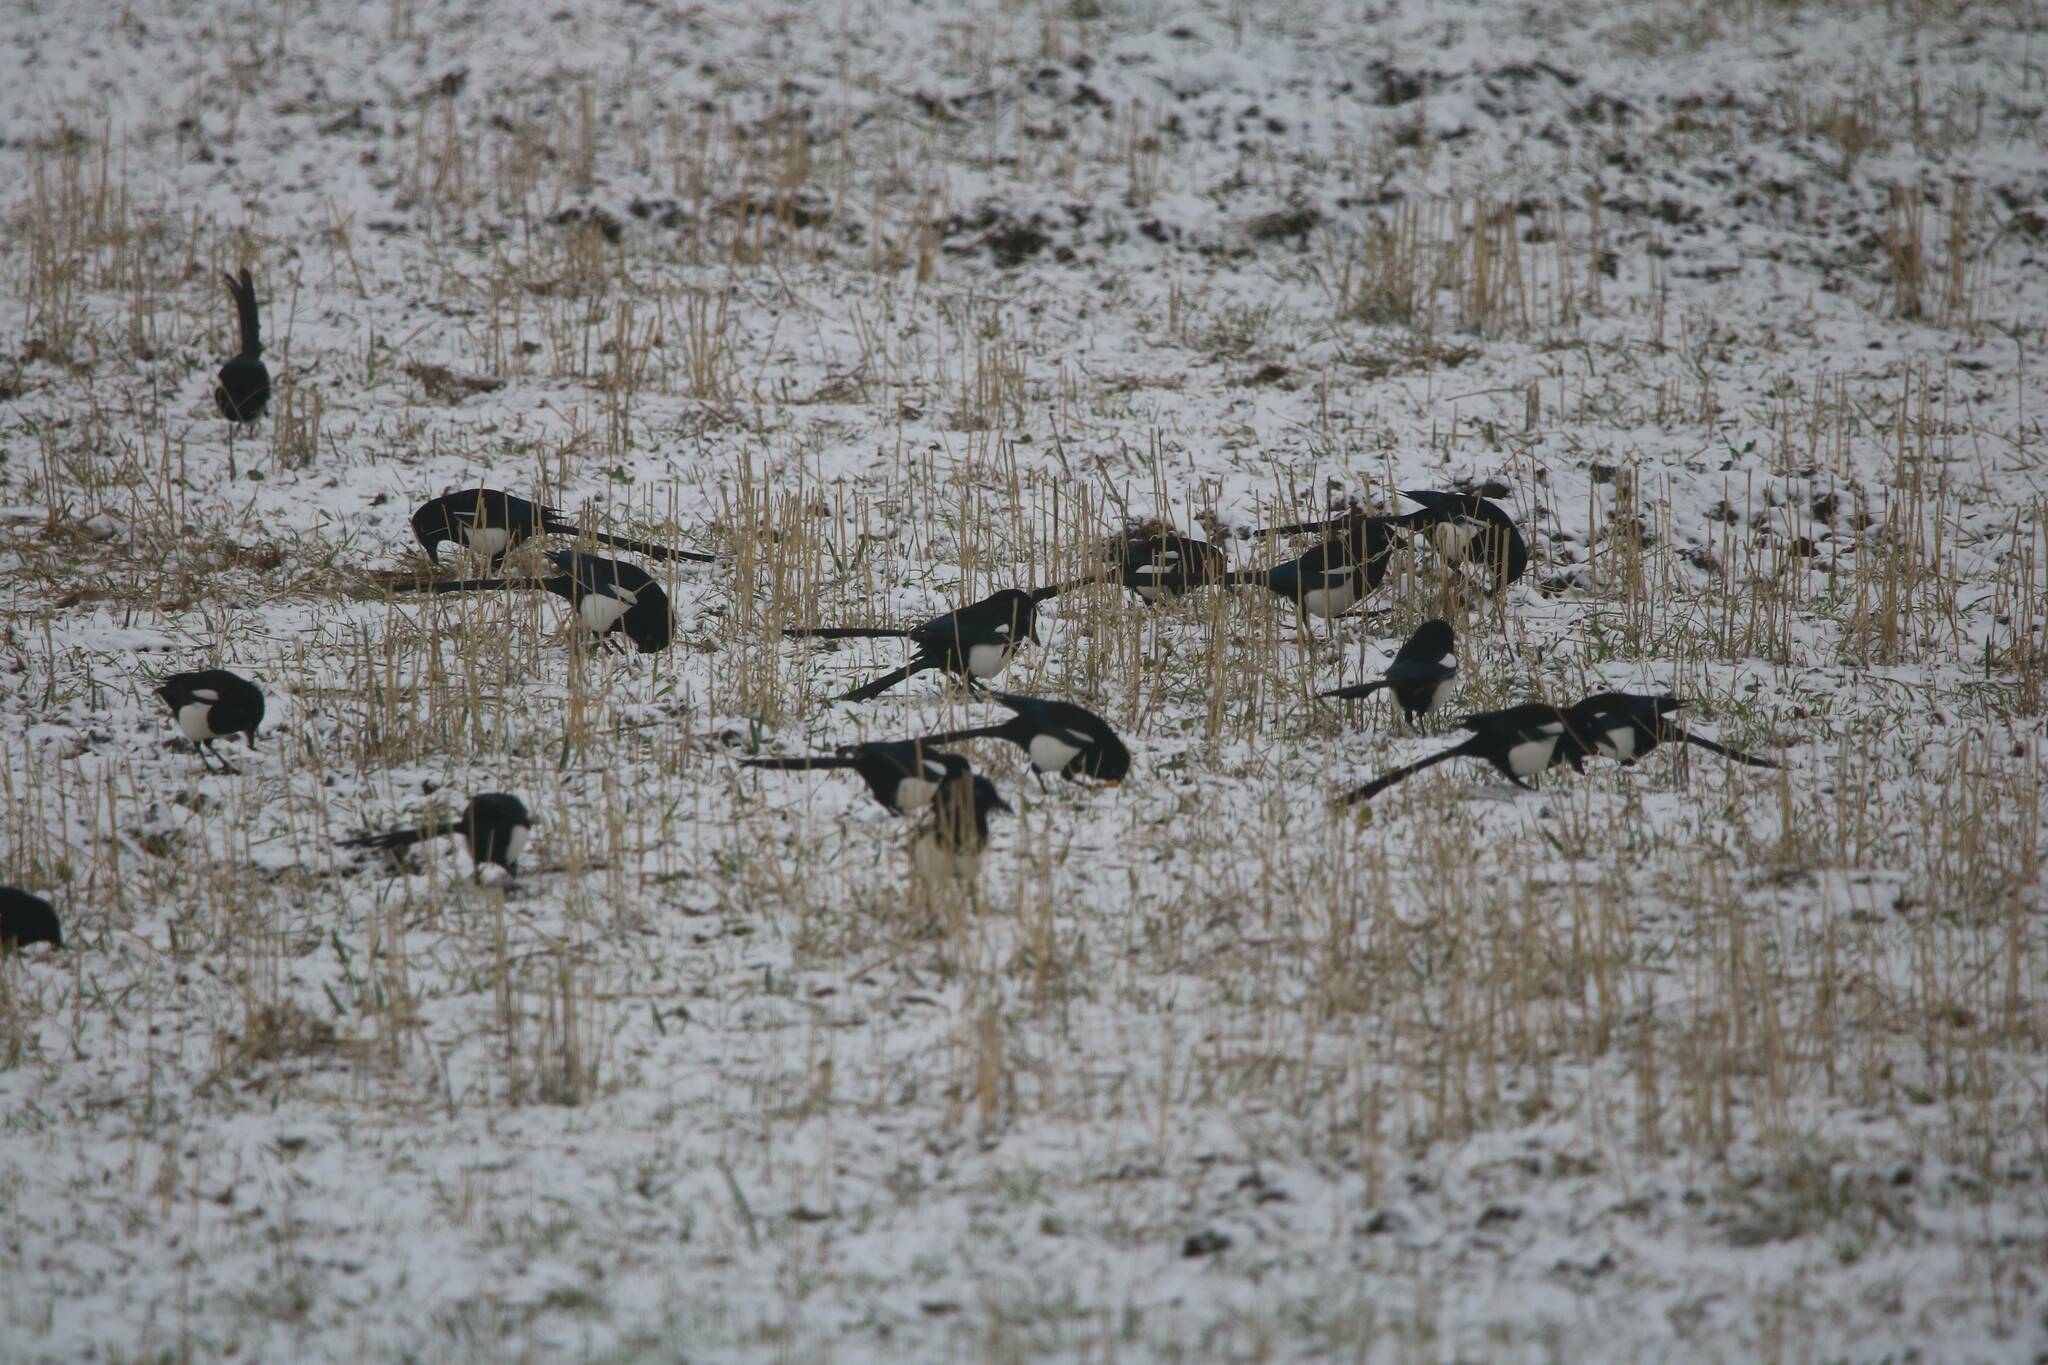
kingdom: Animalia
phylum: Chordata
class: Aves
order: Passeriformes
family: Corvidae
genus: Pica
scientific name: Pica mauritanica
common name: Maghreb magpie
